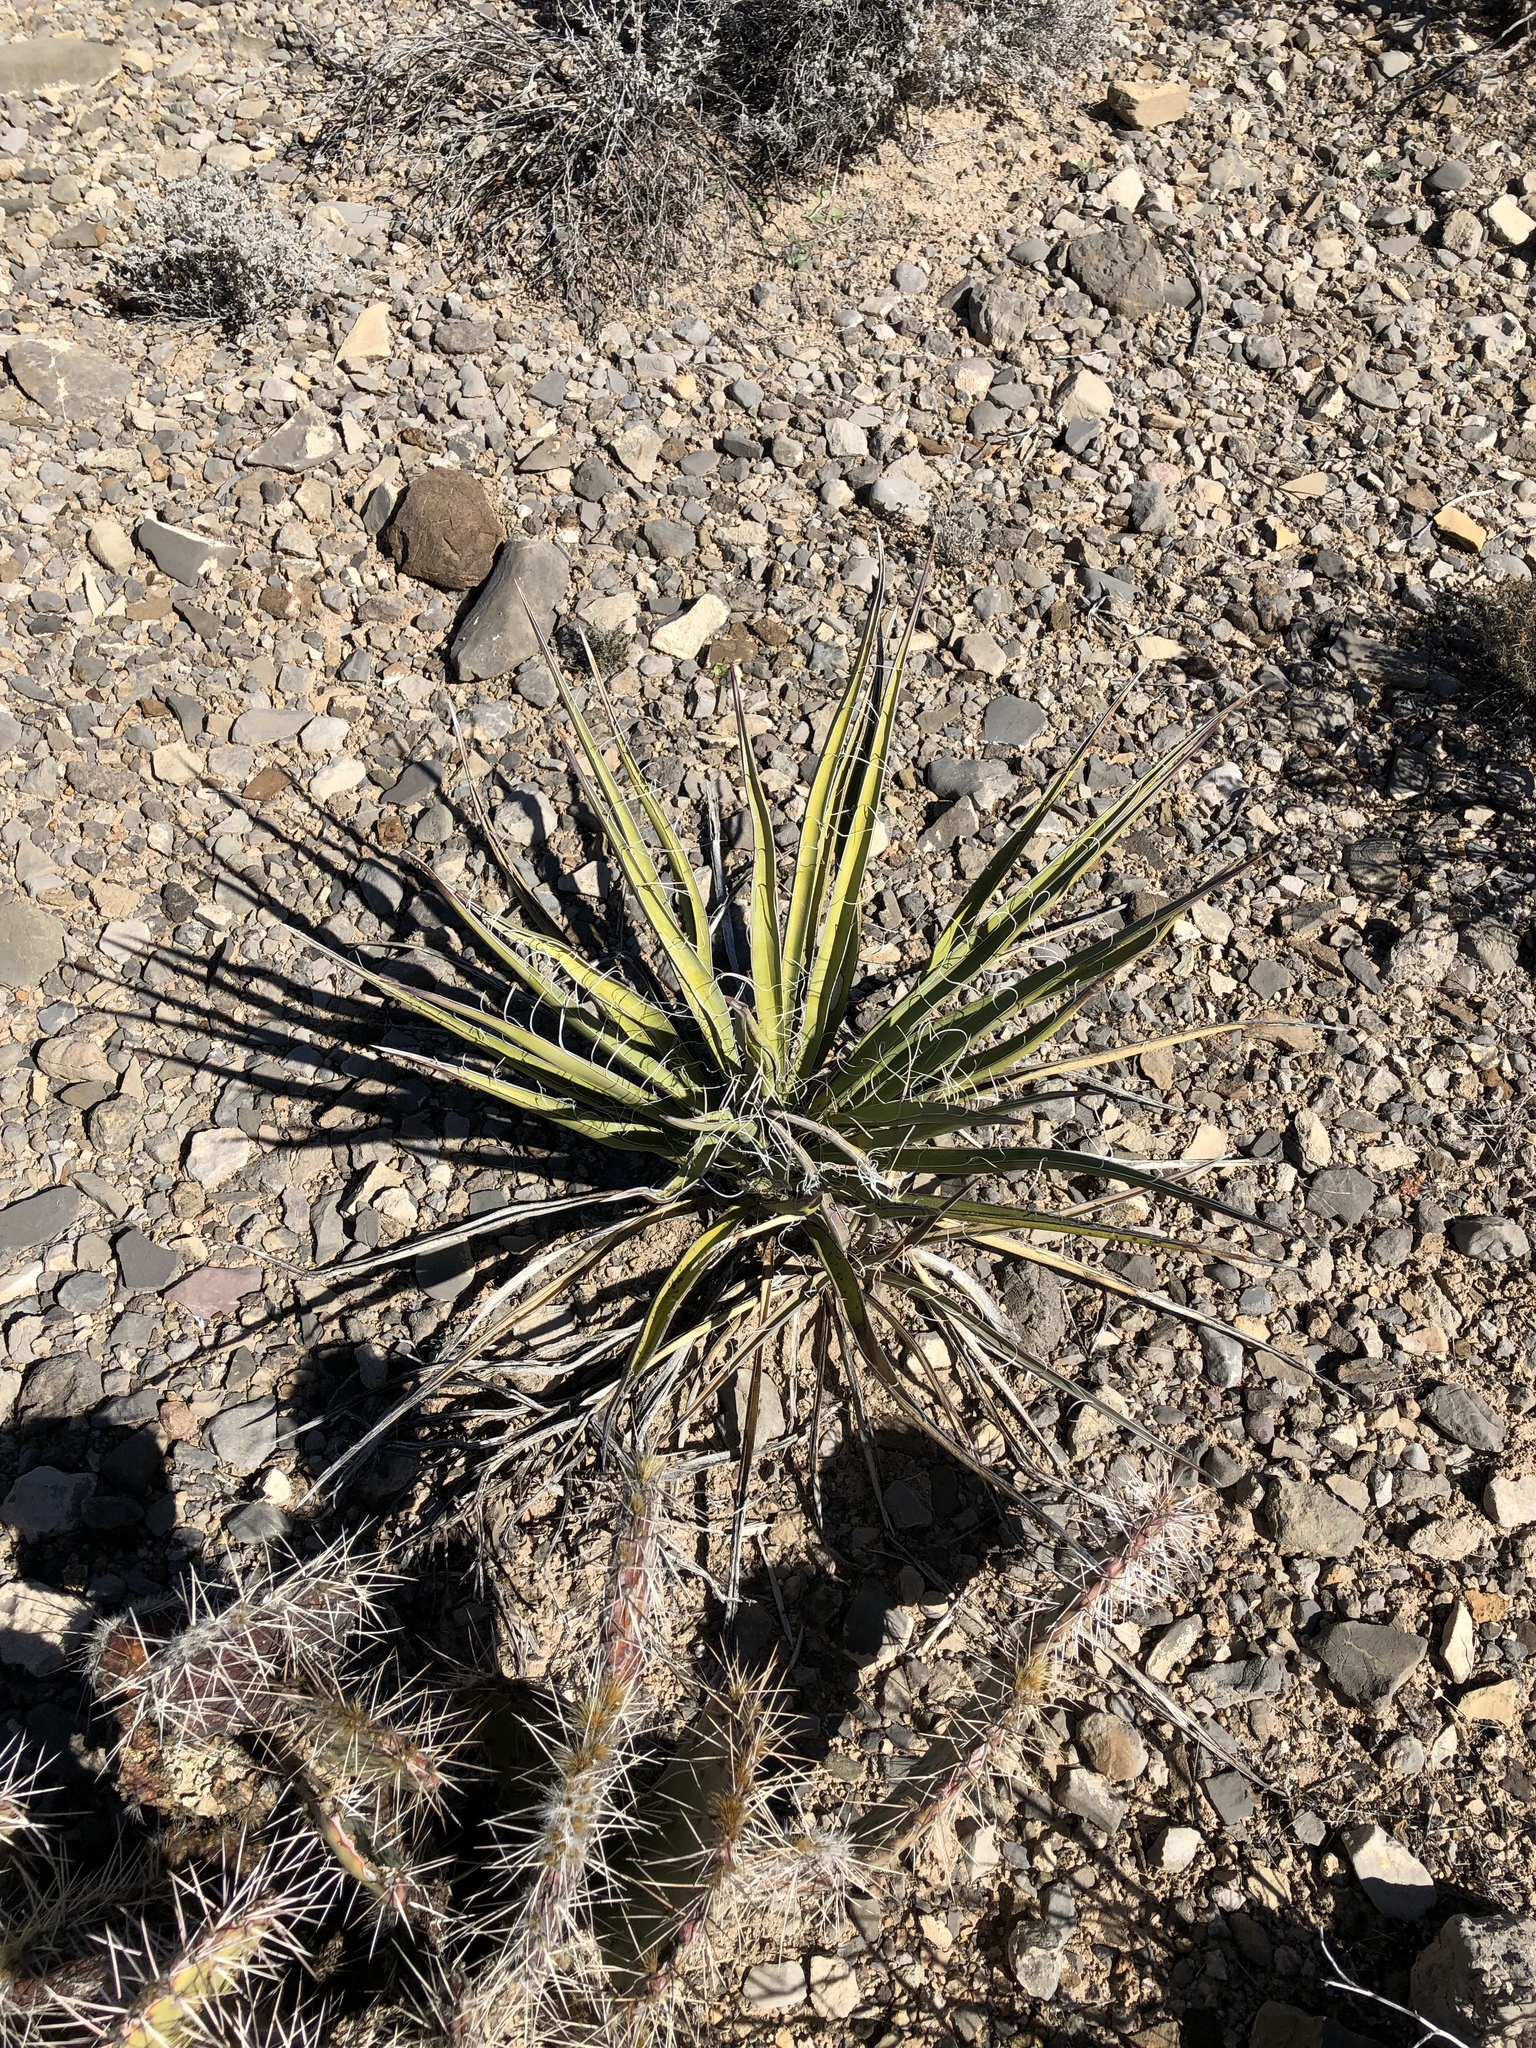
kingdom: Plantae
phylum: Tracheophyta
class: Liliopsida
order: Asparagales
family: Asparagaceae
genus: Yucca
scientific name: Yucca baccata
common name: Banana yucca
